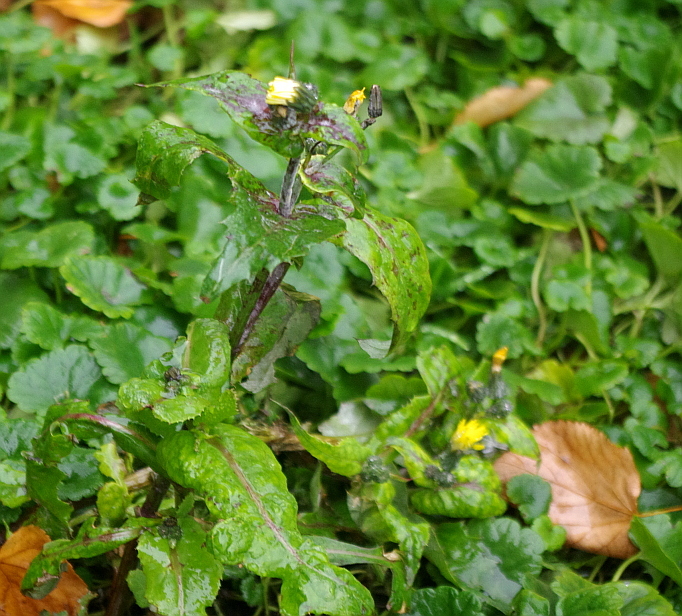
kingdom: Plantae
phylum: Tracheophyta
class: Magnoliopsida
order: Asterales
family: Asteraceae
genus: Sonchus
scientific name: Sonchus oleraceus
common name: Common sowthistle
